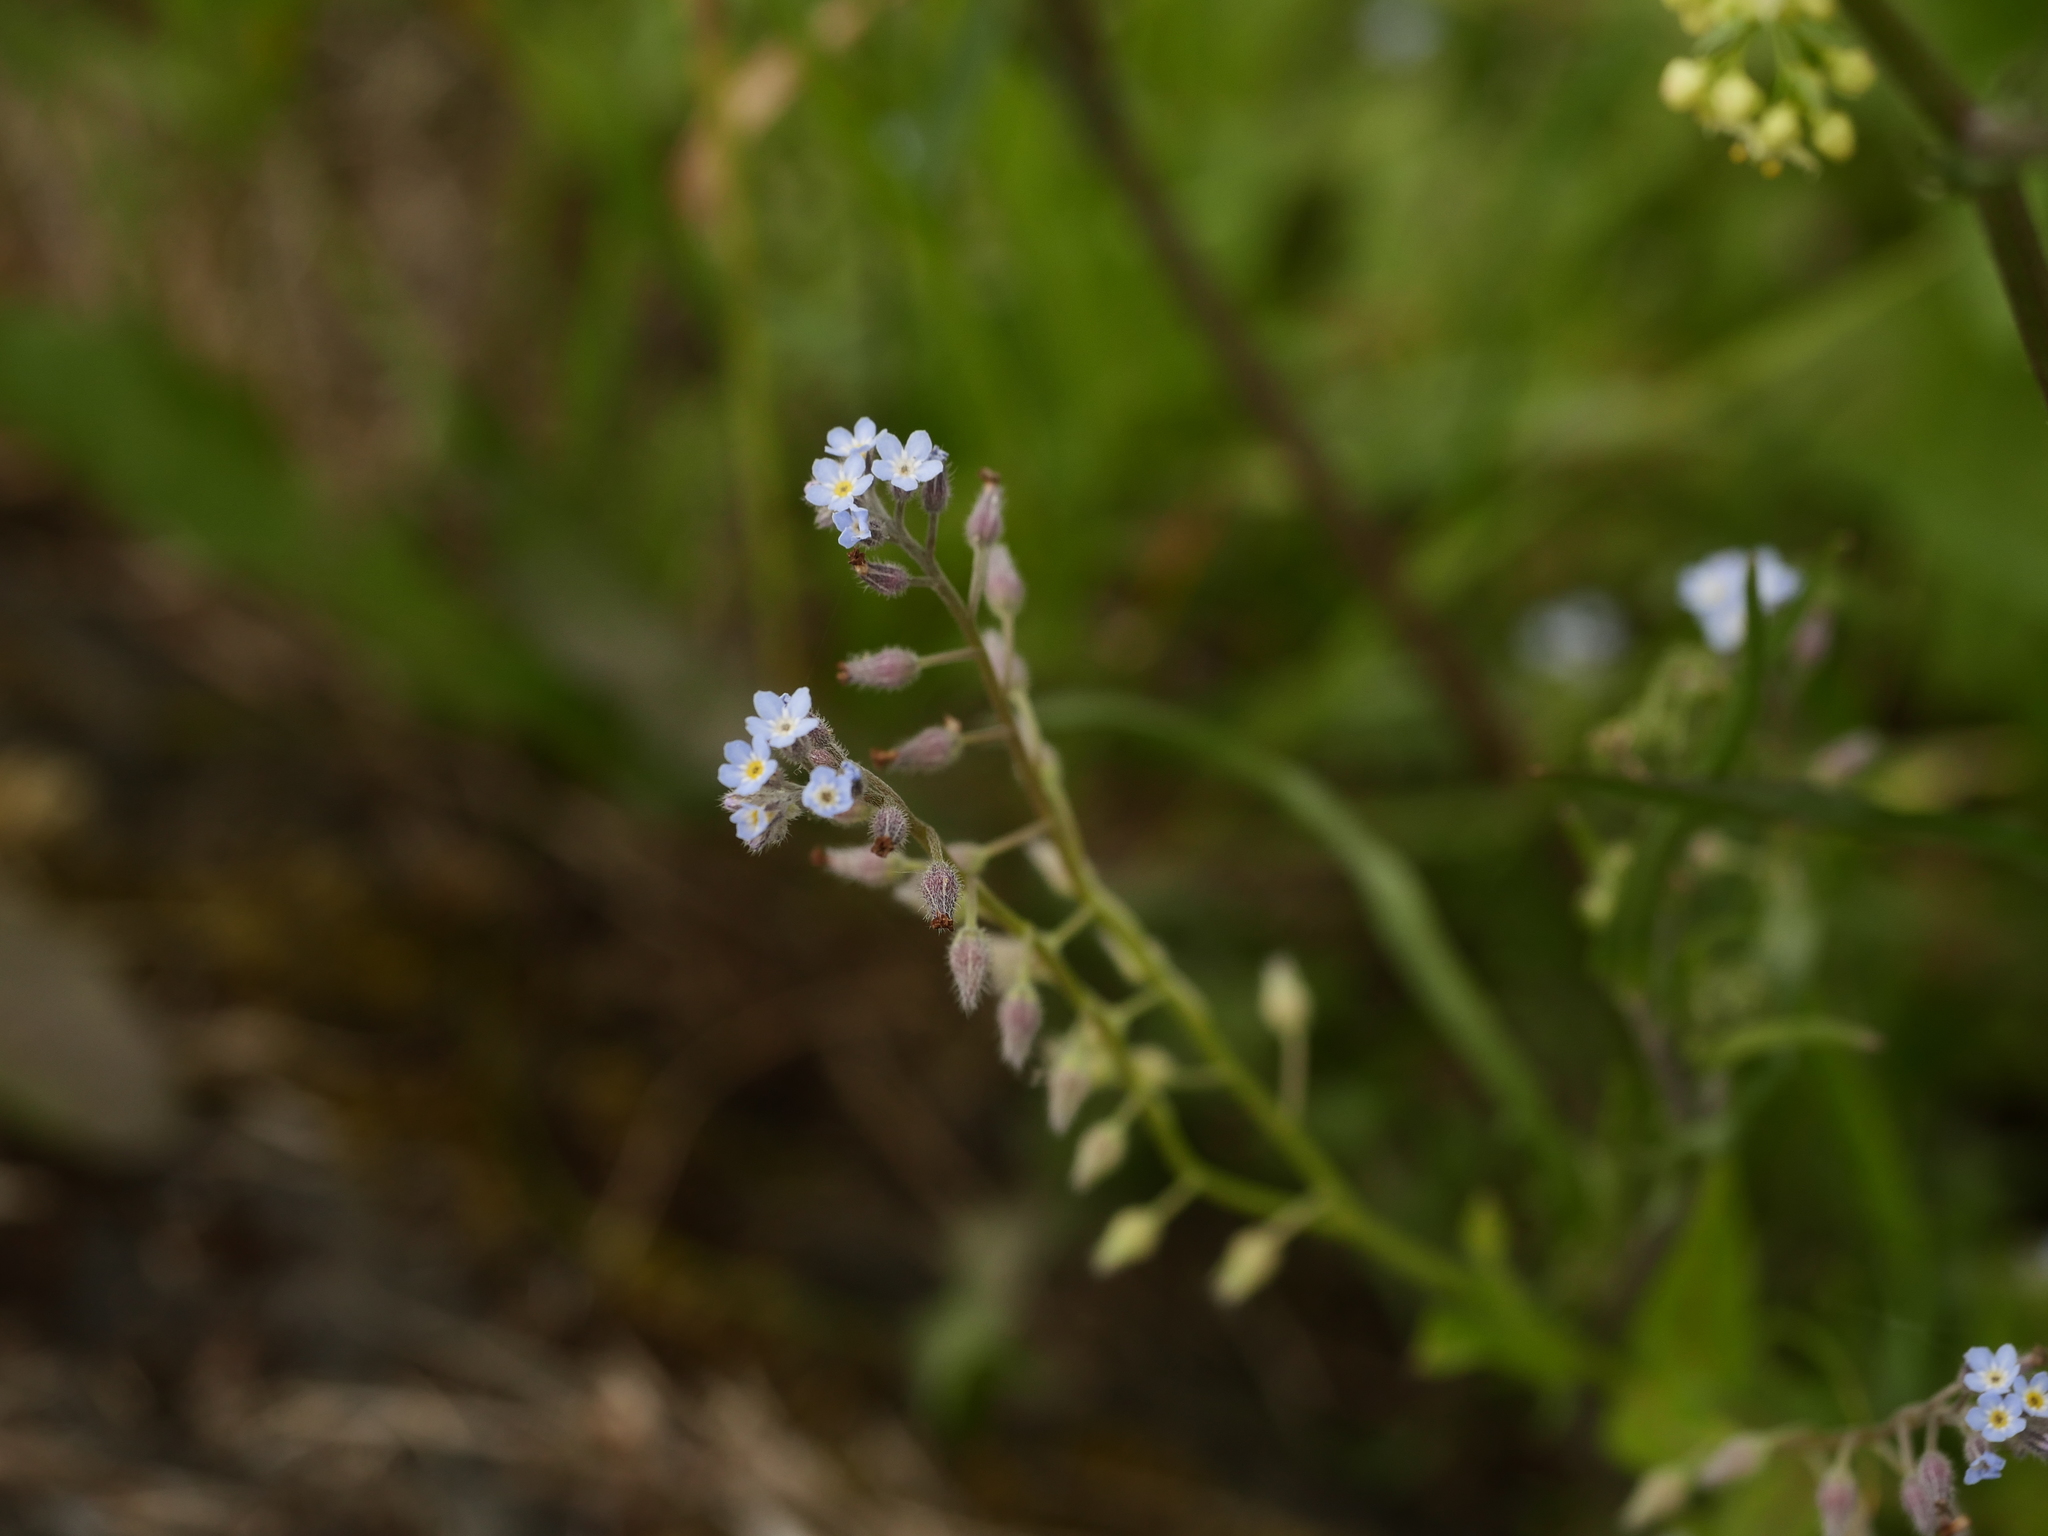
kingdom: Plantae
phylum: Tracheophyta
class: Magnoliopsida
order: Boraginales
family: Boraginaceae
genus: Myosotis
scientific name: Myosotis arvensis
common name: Field forget-me-not
